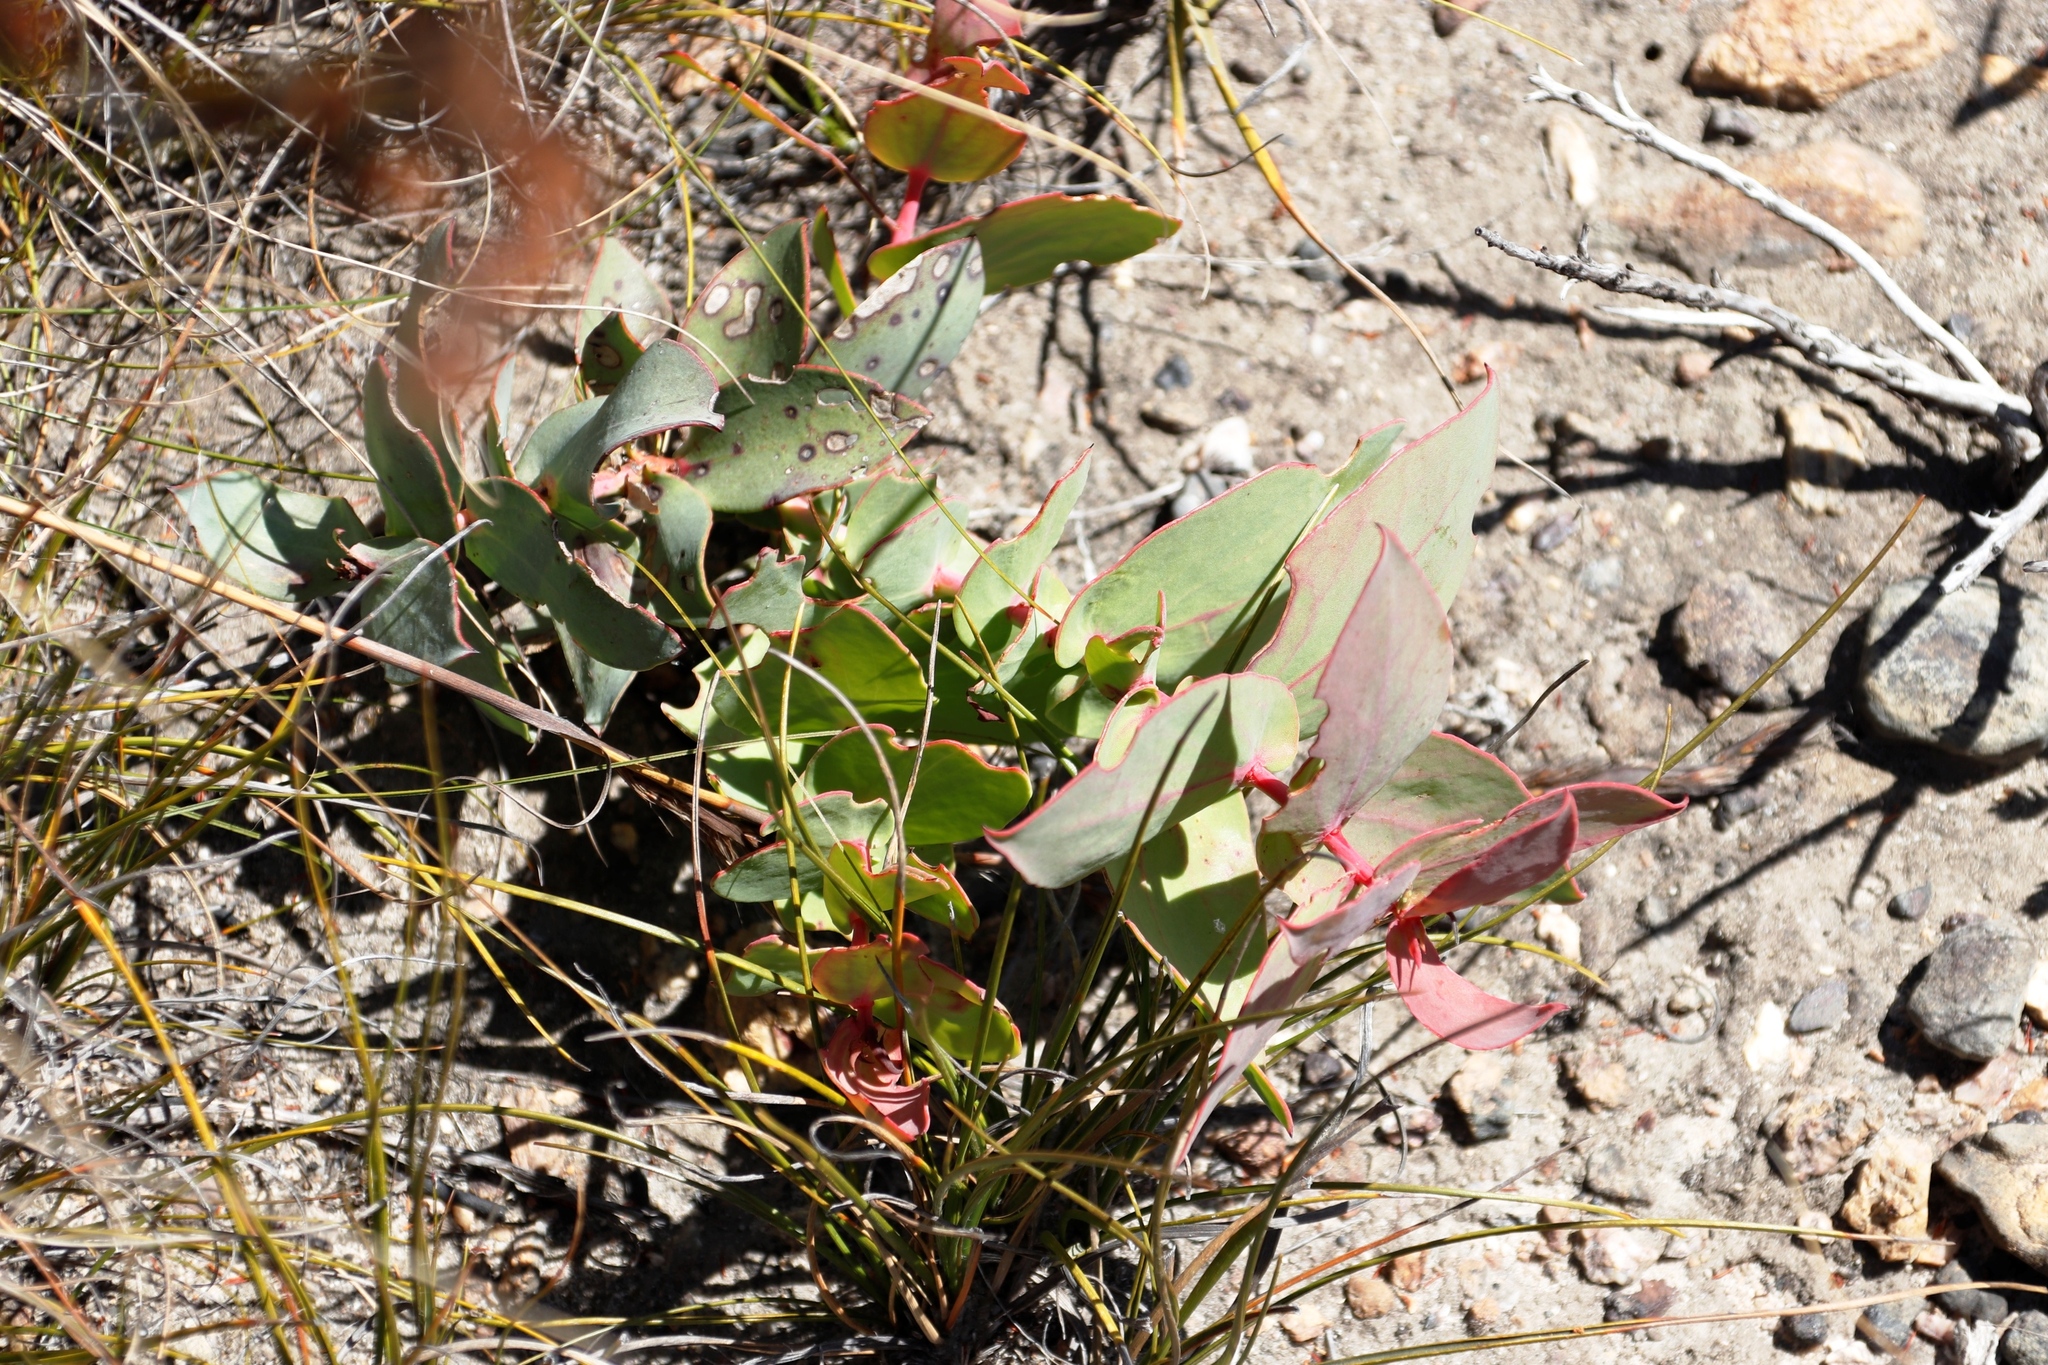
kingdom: Plantae
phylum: Tracheophyta
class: Magnoliopsida
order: Proteales
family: Proteaceae
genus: Protea
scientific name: Protea amplexicaulis
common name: Clasping-leaf sugarbush
